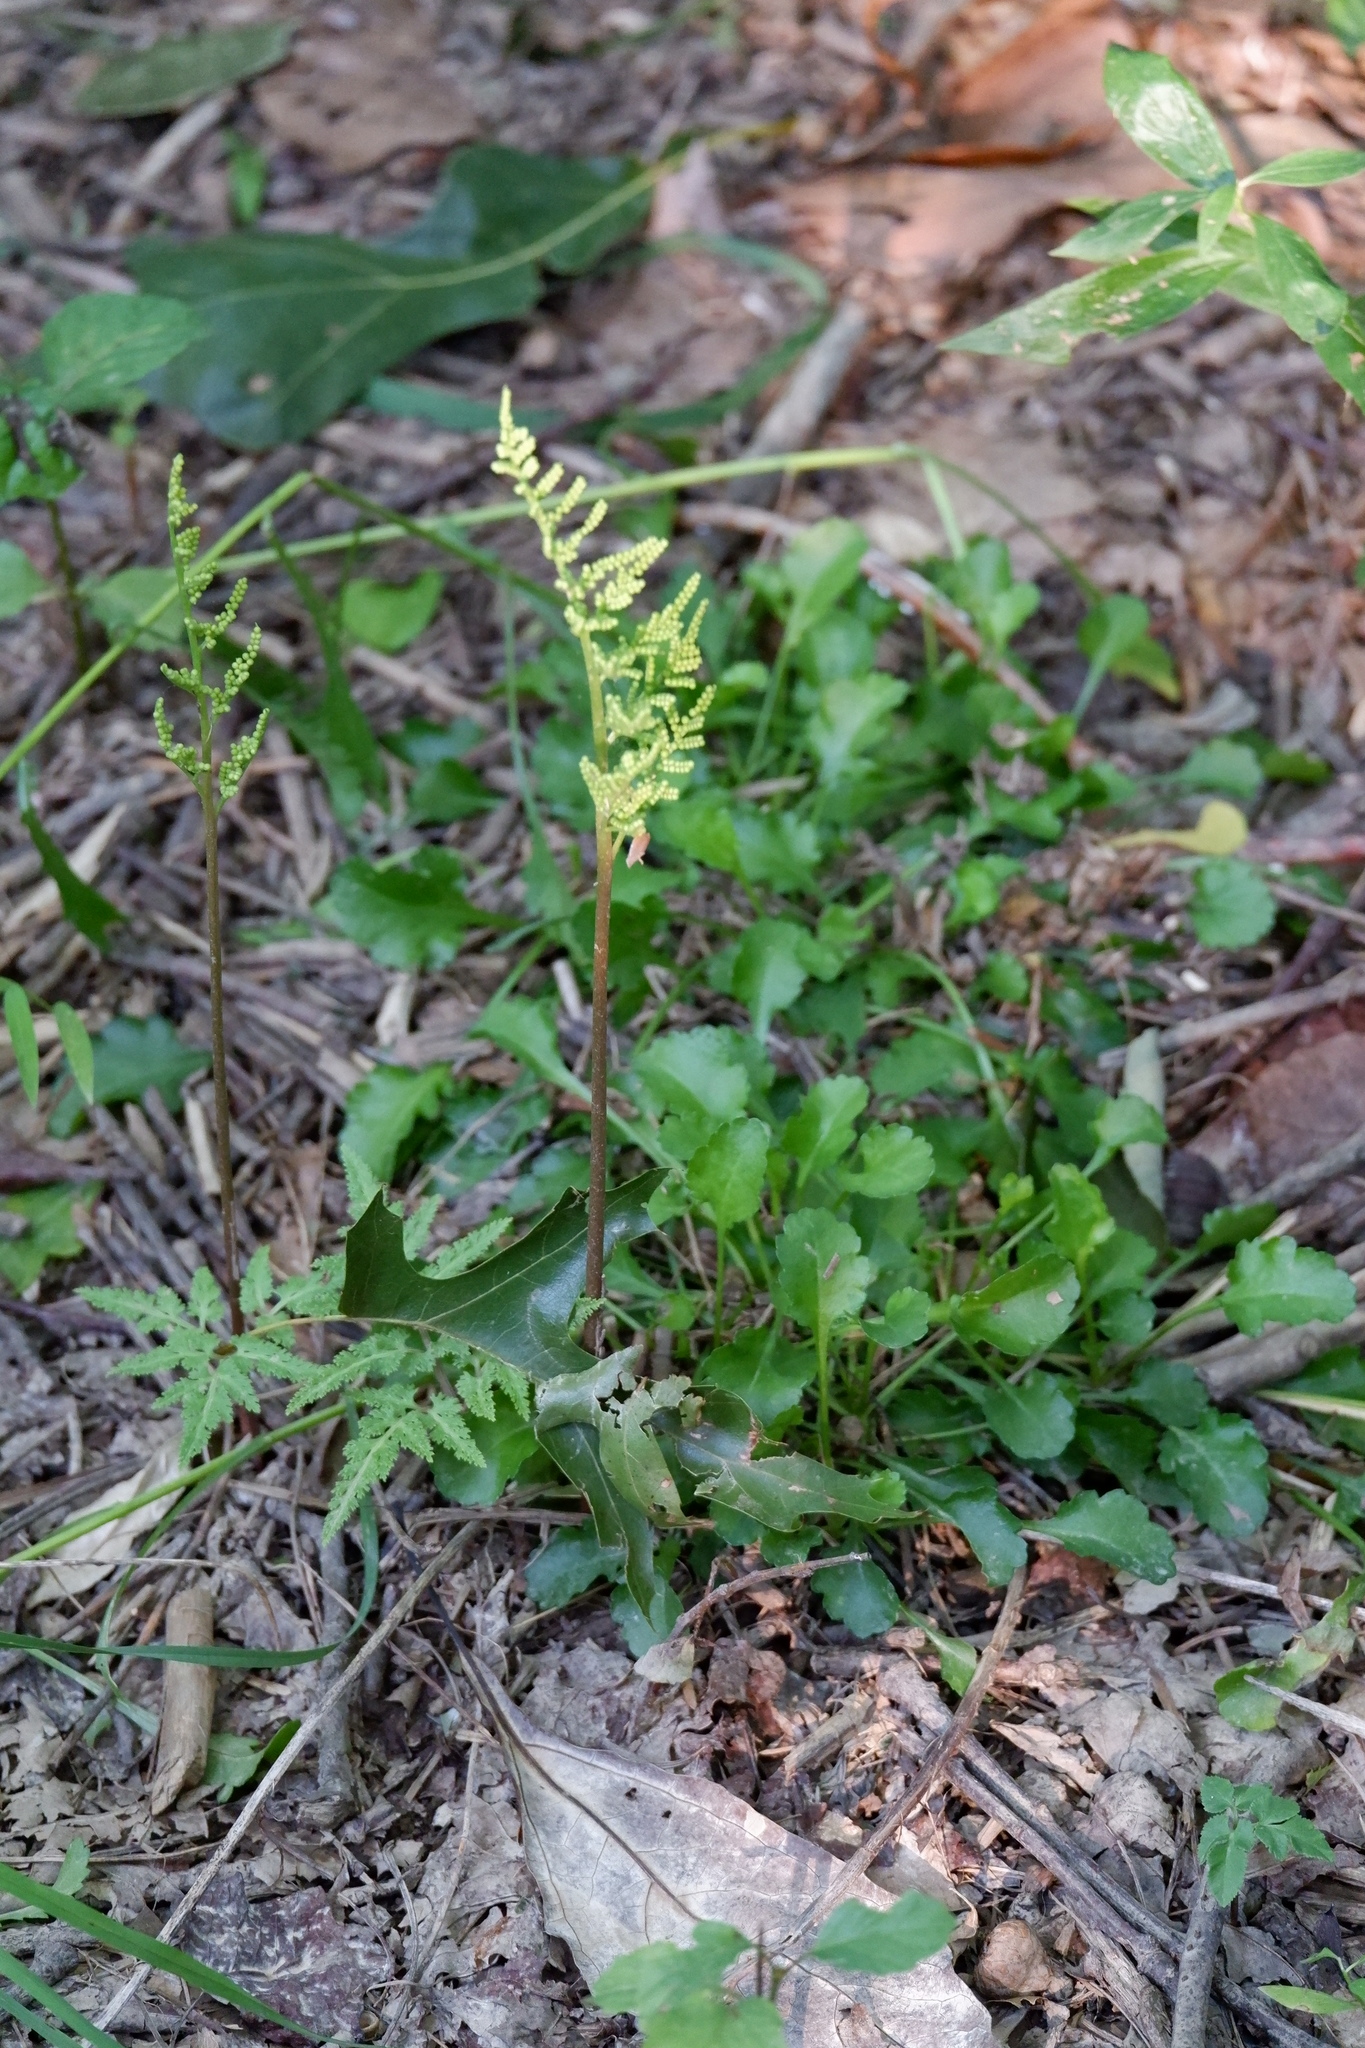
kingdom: Plantae
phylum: Tracheophyta
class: Polypodiopsida
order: Ophioglossales
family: Ophioglossaceae
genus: Sceptridium
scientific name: Sceptridium dissectum
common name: Cut-leaved grapefern
